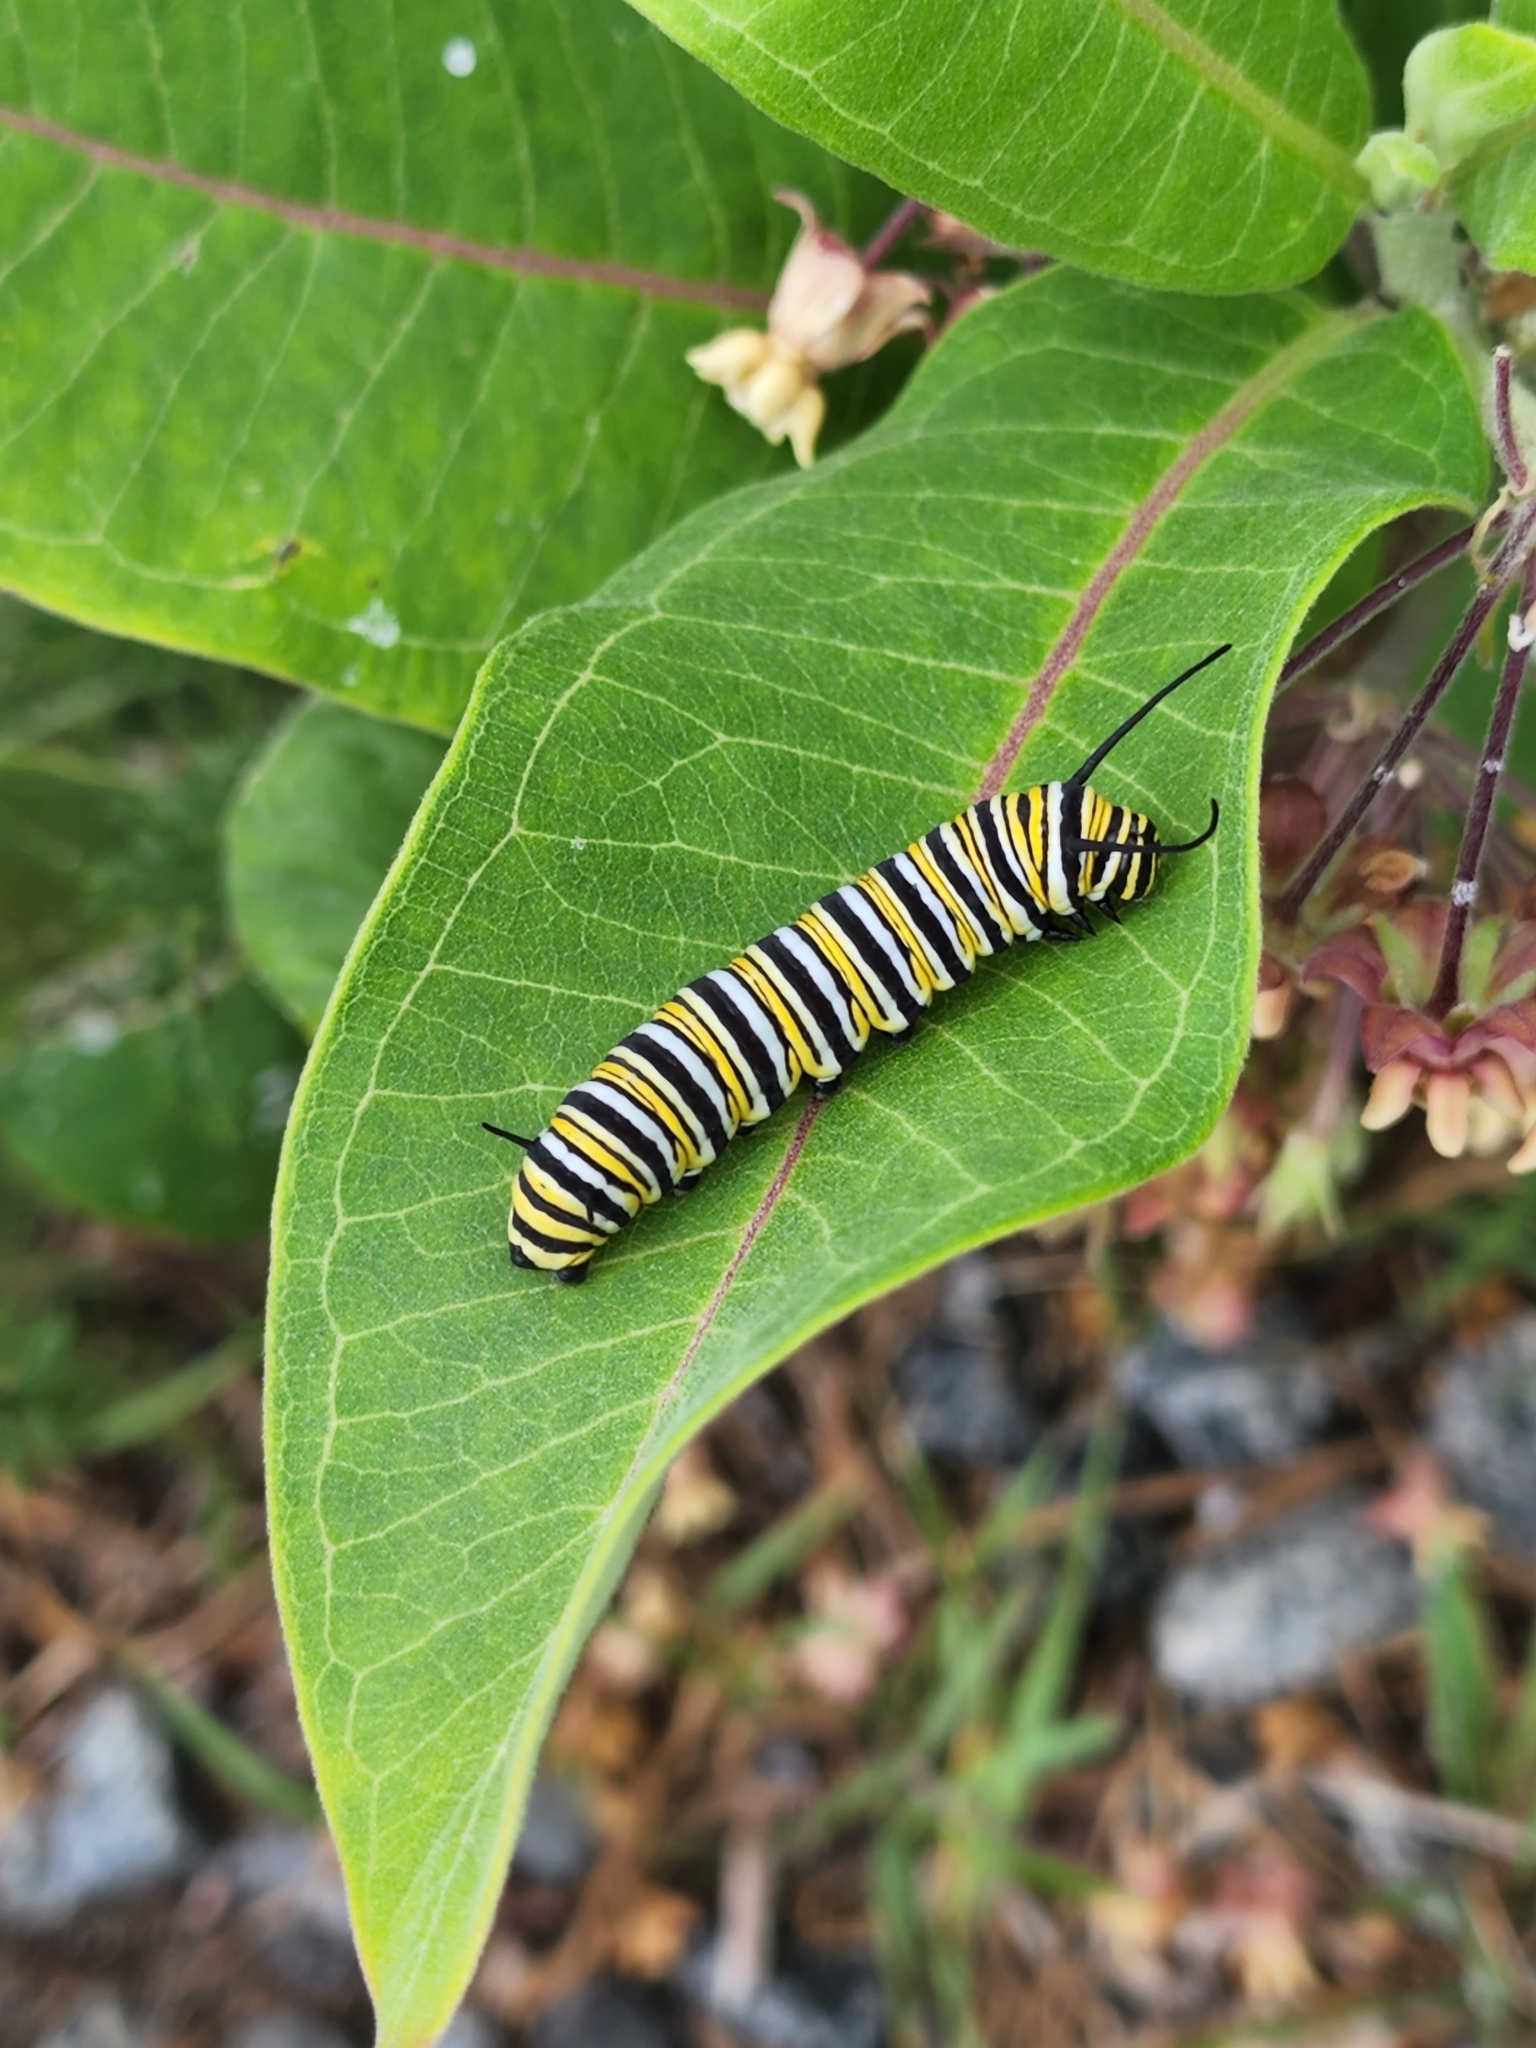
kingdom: Animalia
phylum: Arthropoda
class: Insecta
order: Lepidoptera
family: Nymphalidae
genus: Danaus
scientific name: Danaus plexippus
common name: Monarch
